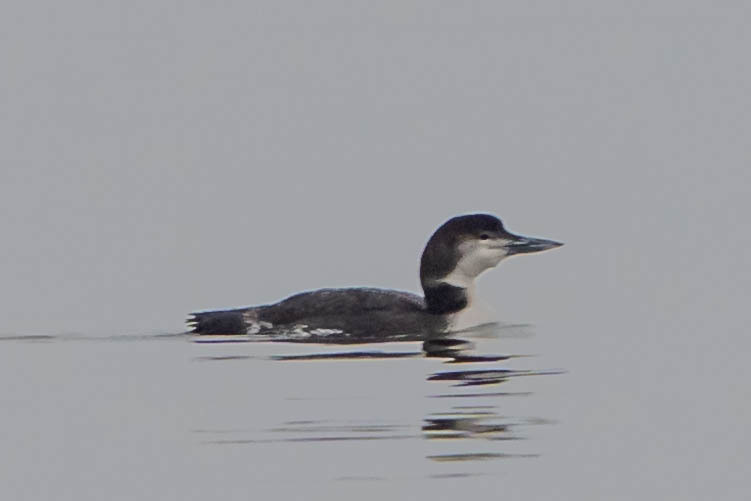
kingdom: Animalia
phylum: Chordata
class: Aves
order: Gaviiformes
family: Gaviidae
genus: Gavia
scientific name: Gavia immer
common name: Common loon
